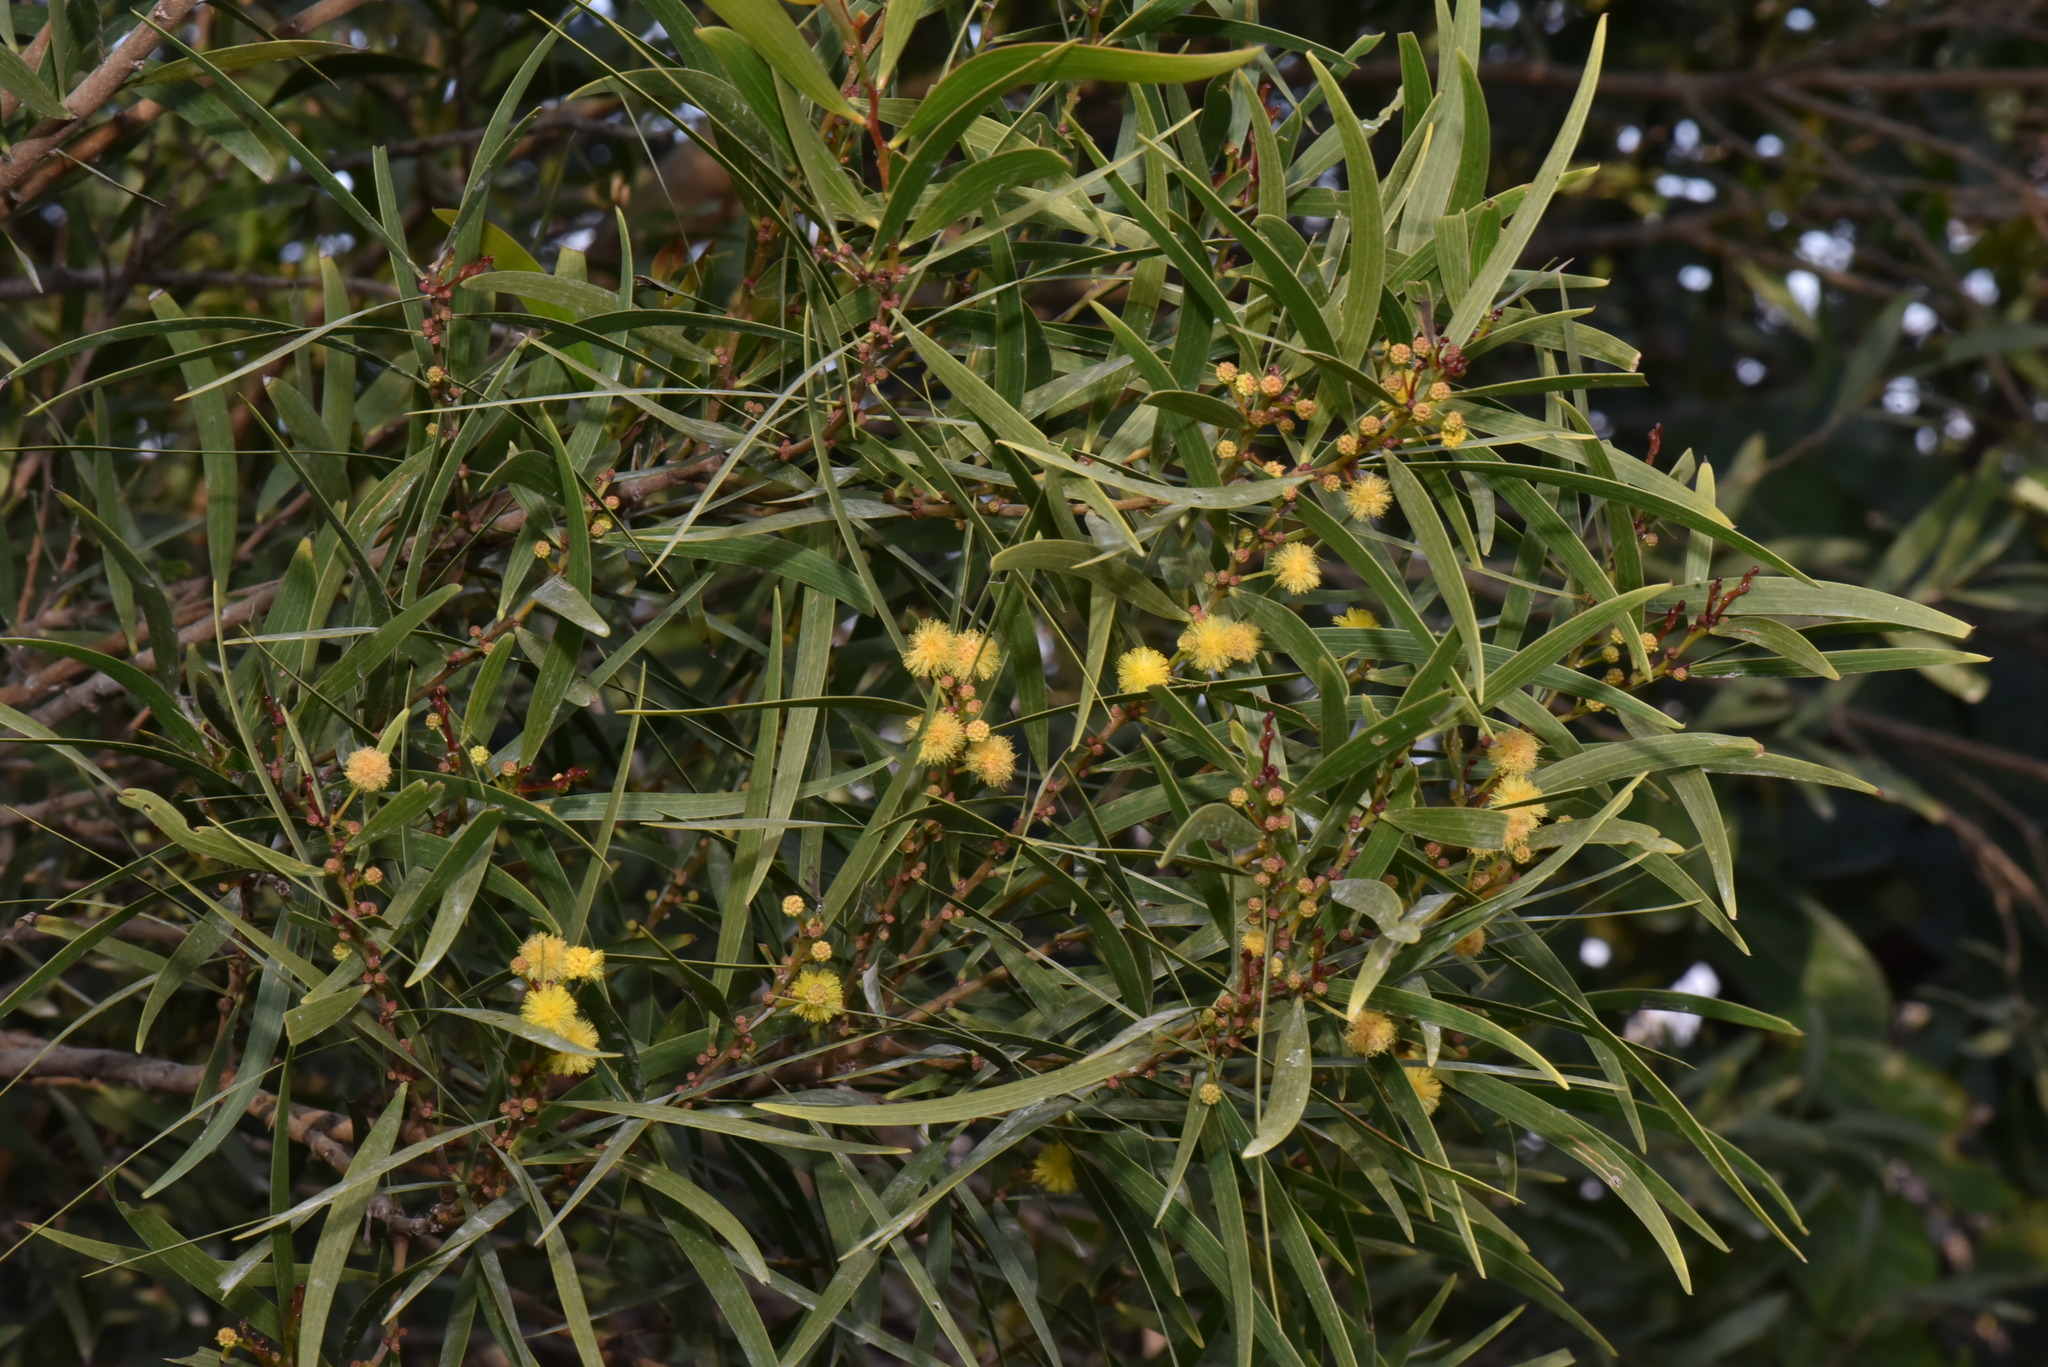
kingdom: Plantae
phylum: Tracheophyta
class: Magnoliopsida
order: Fabales
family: Fabaceae
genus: Acacia
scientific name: Acacia confusa
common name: Formosan koa
